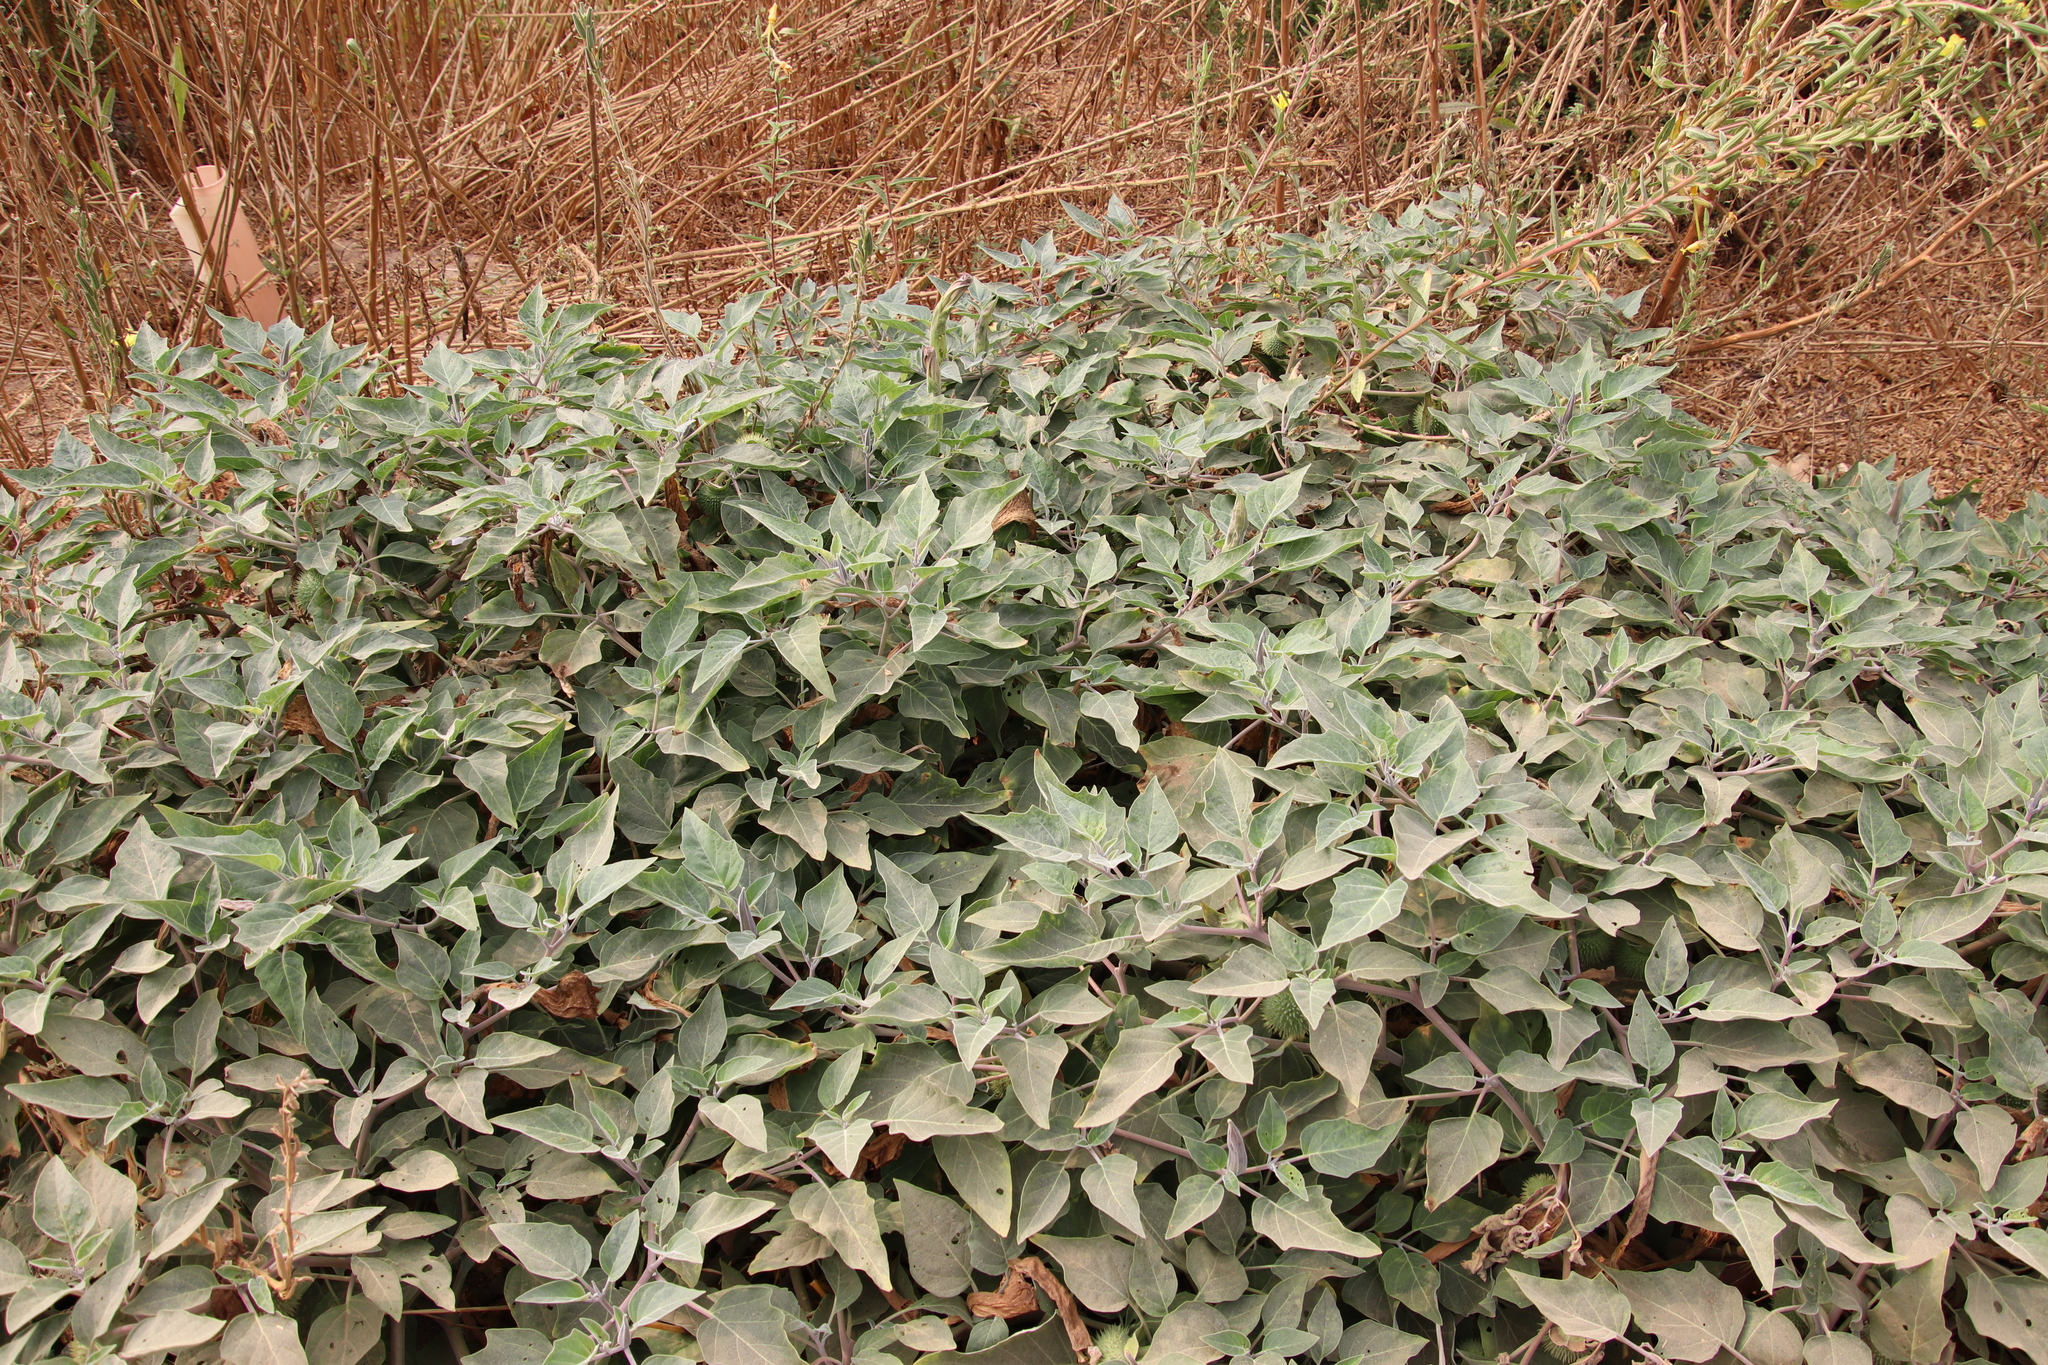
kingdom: Plantae
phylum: Tracheophyta
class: Magnoliopsida
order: Solanales
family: Solanaceae
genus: Datura
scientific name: Datura wrightii
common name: Sacred thorn-apple
